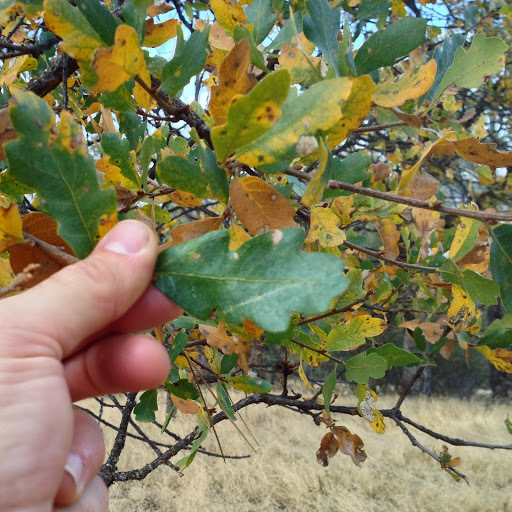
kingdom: Plantae
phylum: Tracheophyta
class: Magnoliopsida
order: Fagales
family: Fagaceae
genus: Quercus
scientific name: Quercus douglasii
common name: Blue oak
